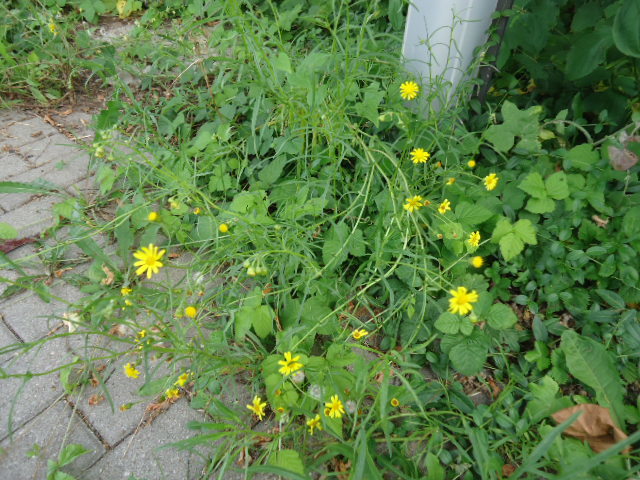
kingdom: Plantae
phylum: Tracheophyta
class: Magnoliopsida
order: Asterales
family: Asteraceae
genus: Senecio
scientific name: Senecio inaequidens
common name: Narrow-leaved ragwort
